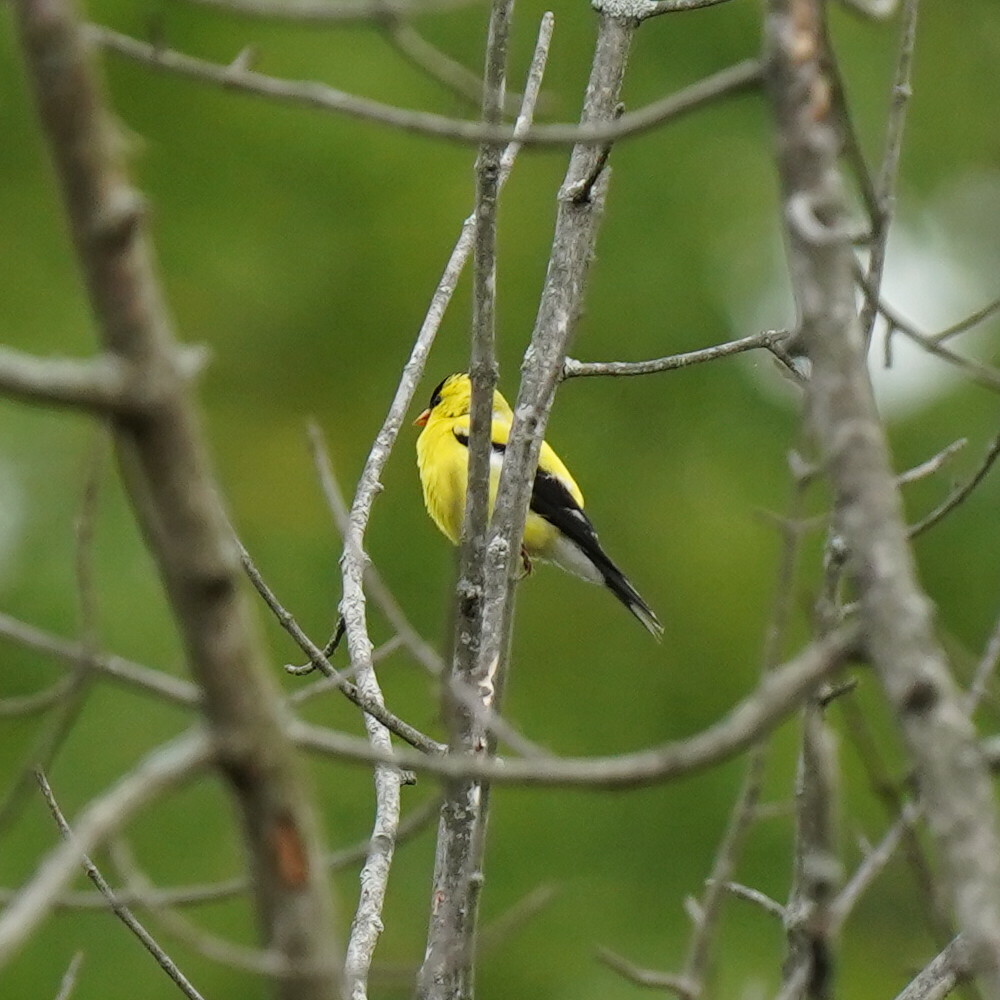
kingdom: Animalia
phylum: Chordata
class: Aves
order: Passeriformes
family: Fringillidae
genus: Spinus
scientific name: Spinus tristis
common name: American goldfinch
